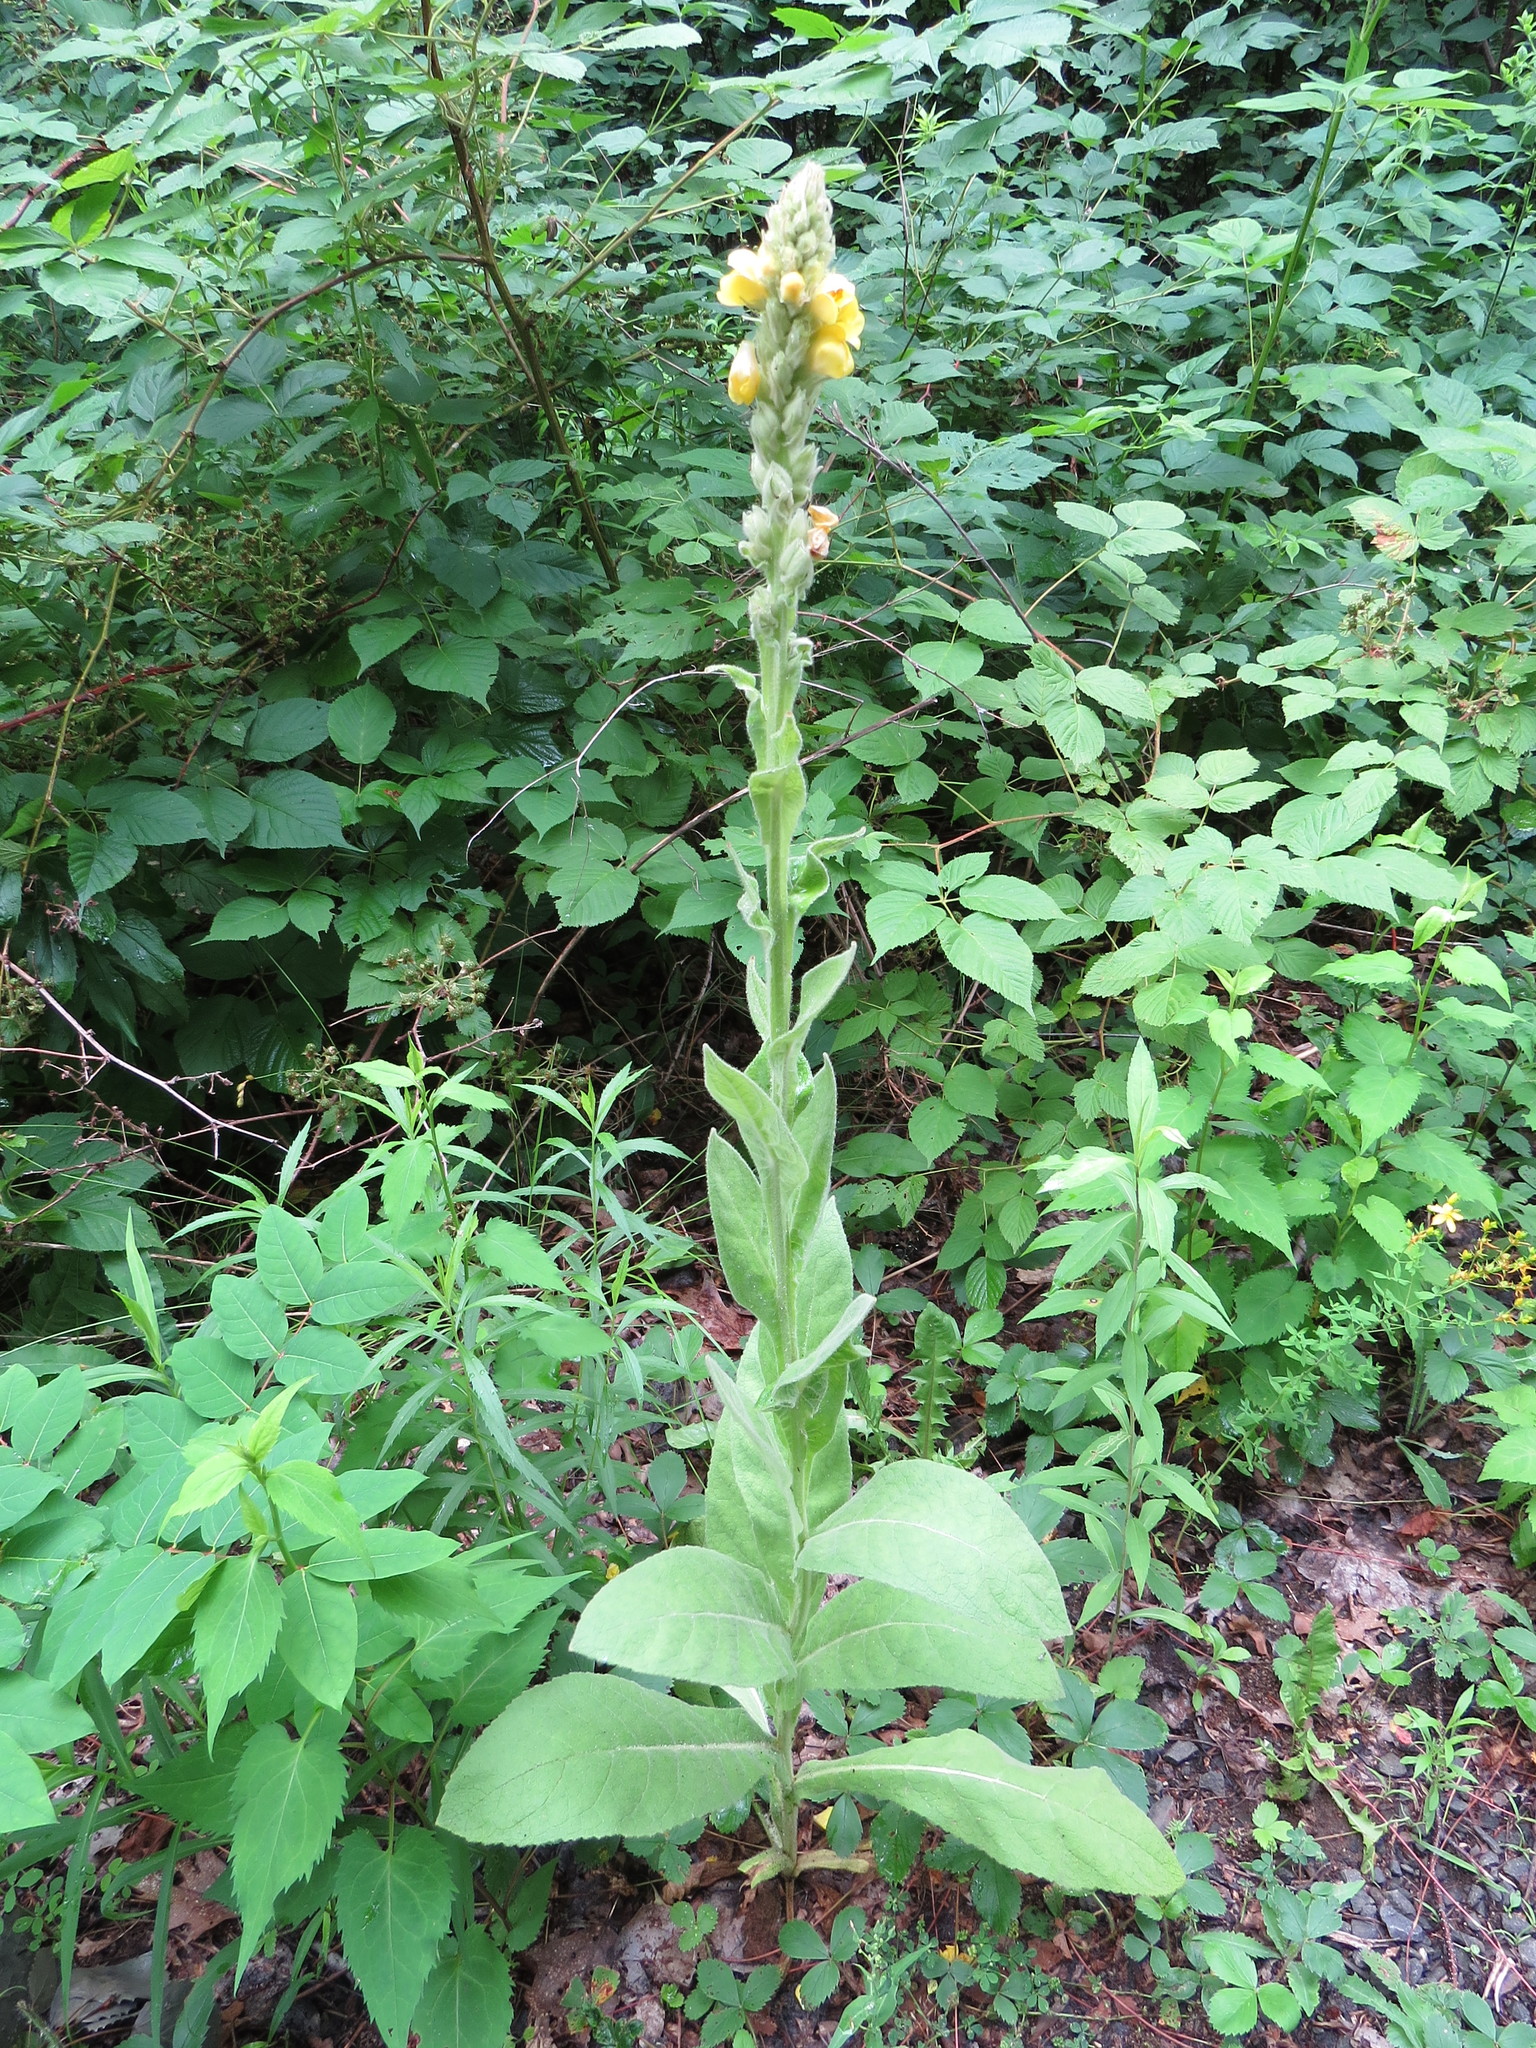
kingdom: Plantae
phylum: Tracheophyta
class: Magnoliopsida
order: Lamiales
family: Scrophulariaceae
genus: Verbascum
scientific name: Verbascum thapsus
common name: Common mullein
